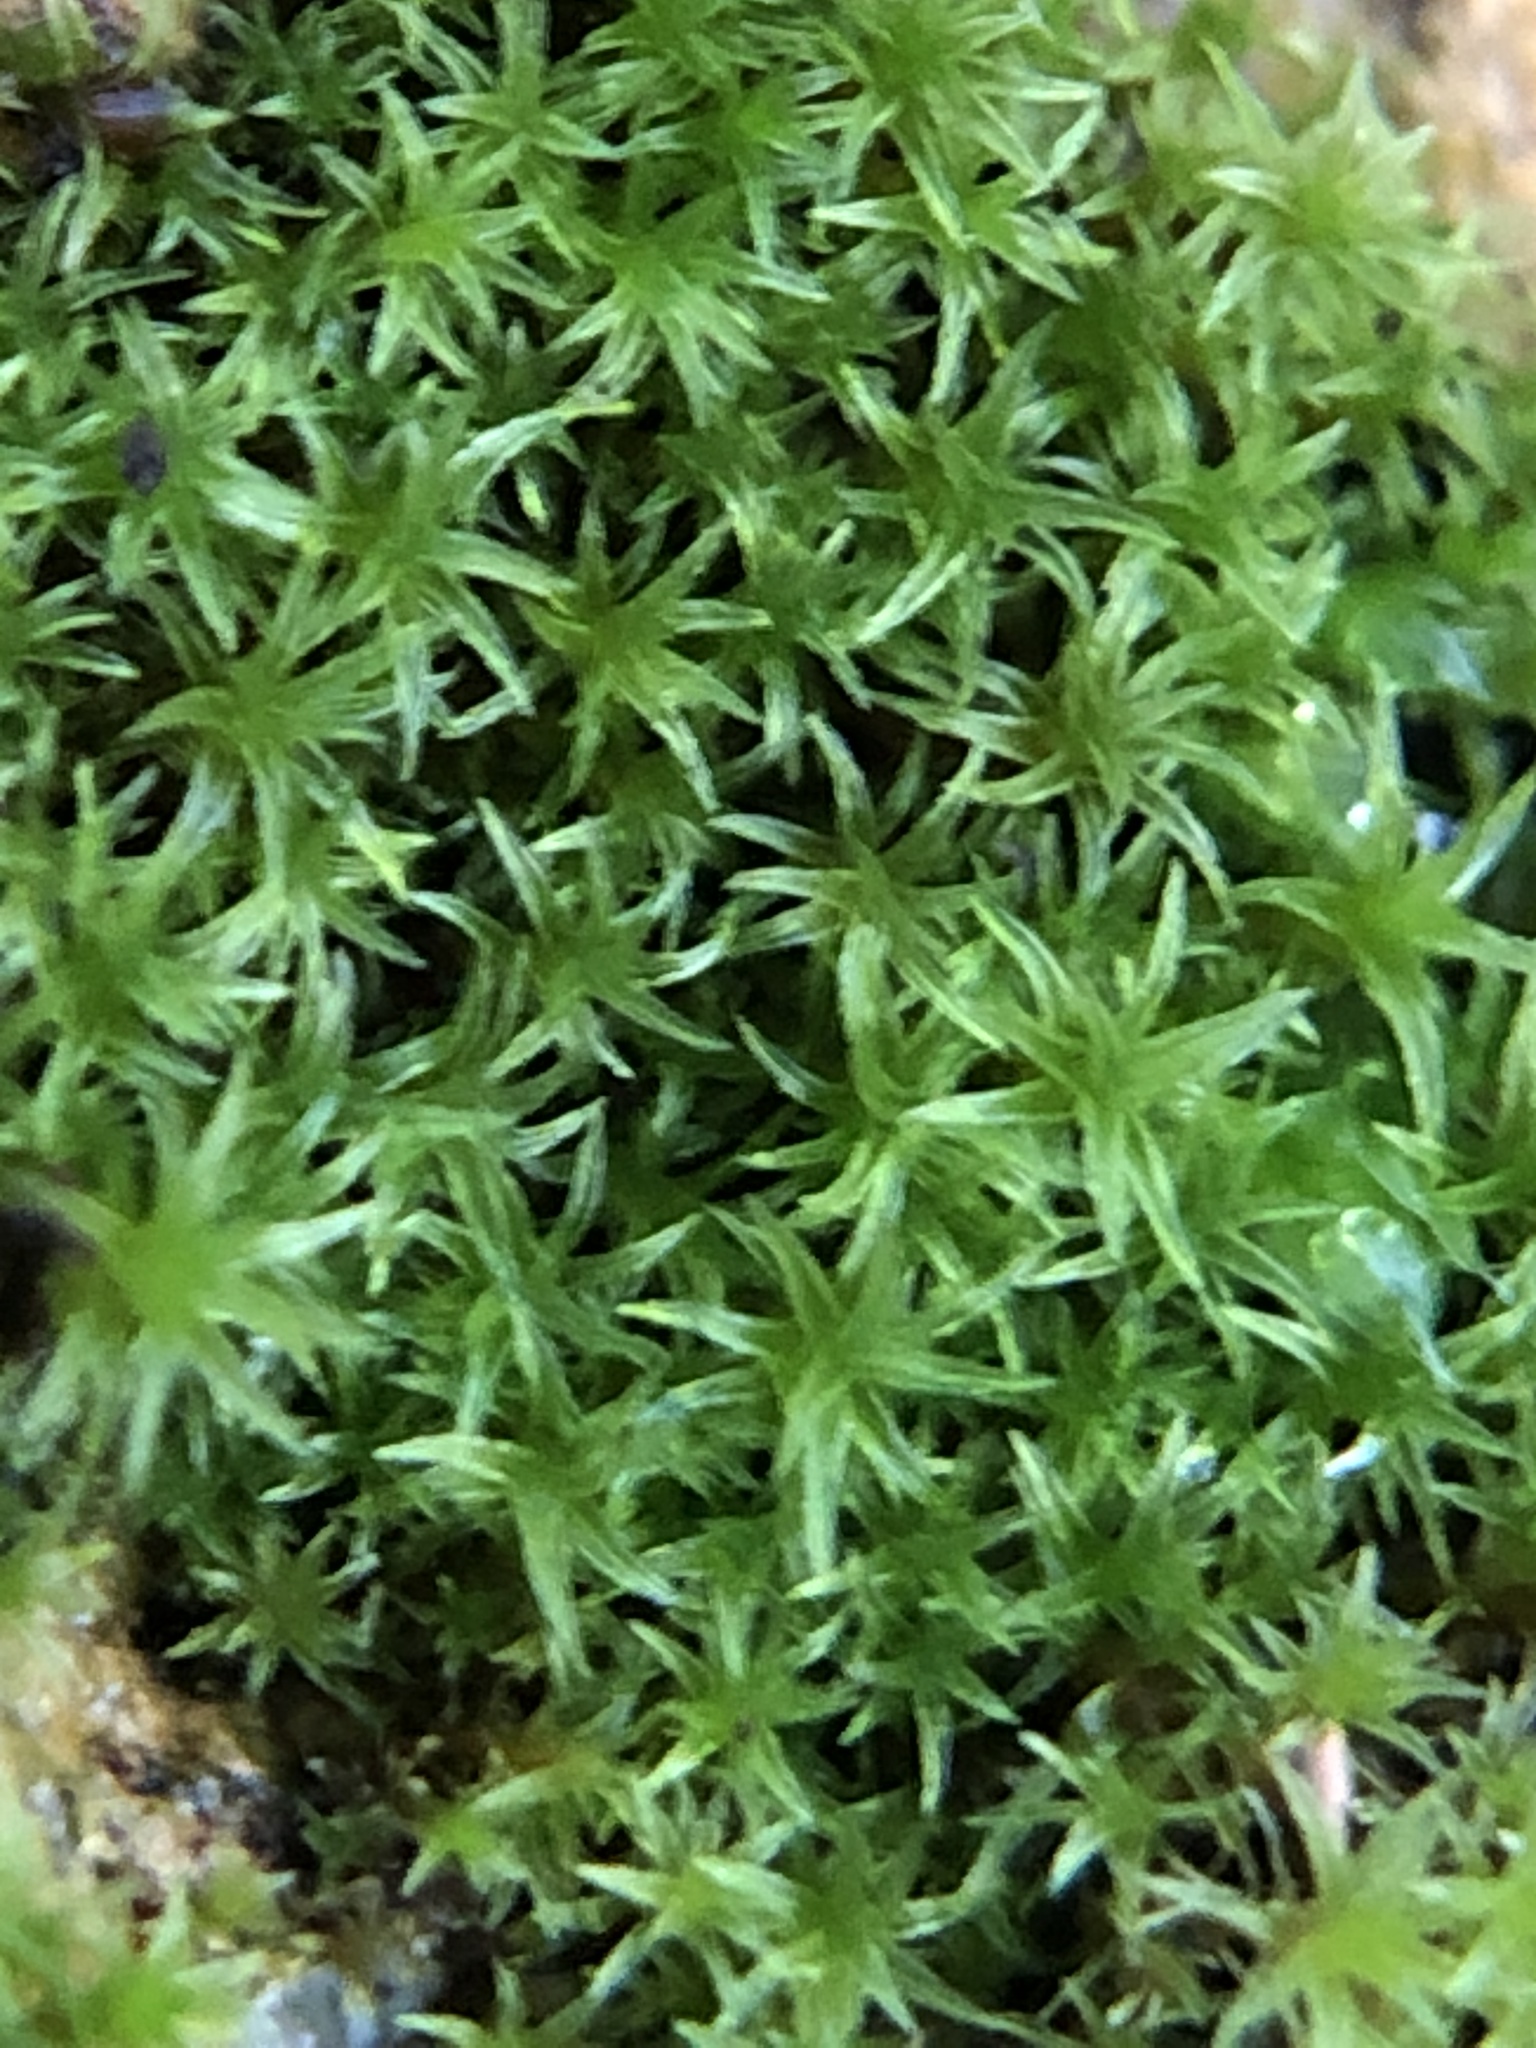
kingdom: Plantae
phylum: Bryophyta
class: Bryopsida
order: Pottiales
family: Pottiaceae
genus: Geheebia
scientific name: Geheebia fallax
